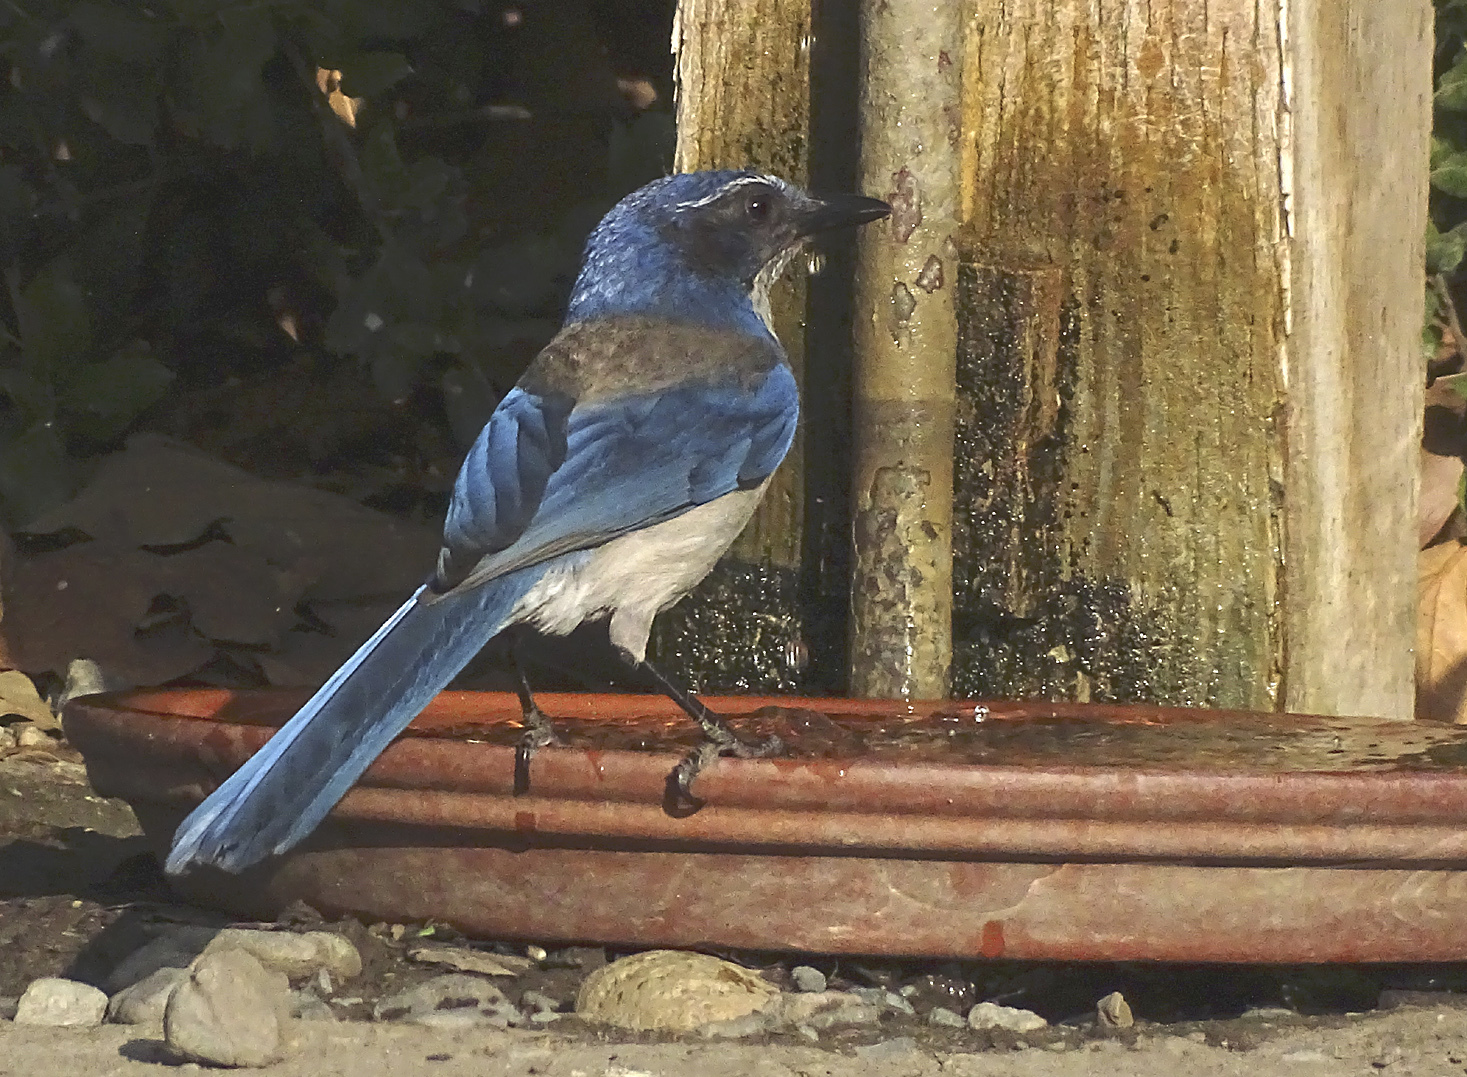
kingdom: Animalia
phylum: Chordata
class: Aves
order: Passeriformes
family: Corvidae
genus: Aphelocoma
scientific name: Aphelocoma californica
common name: California scrub-jay
